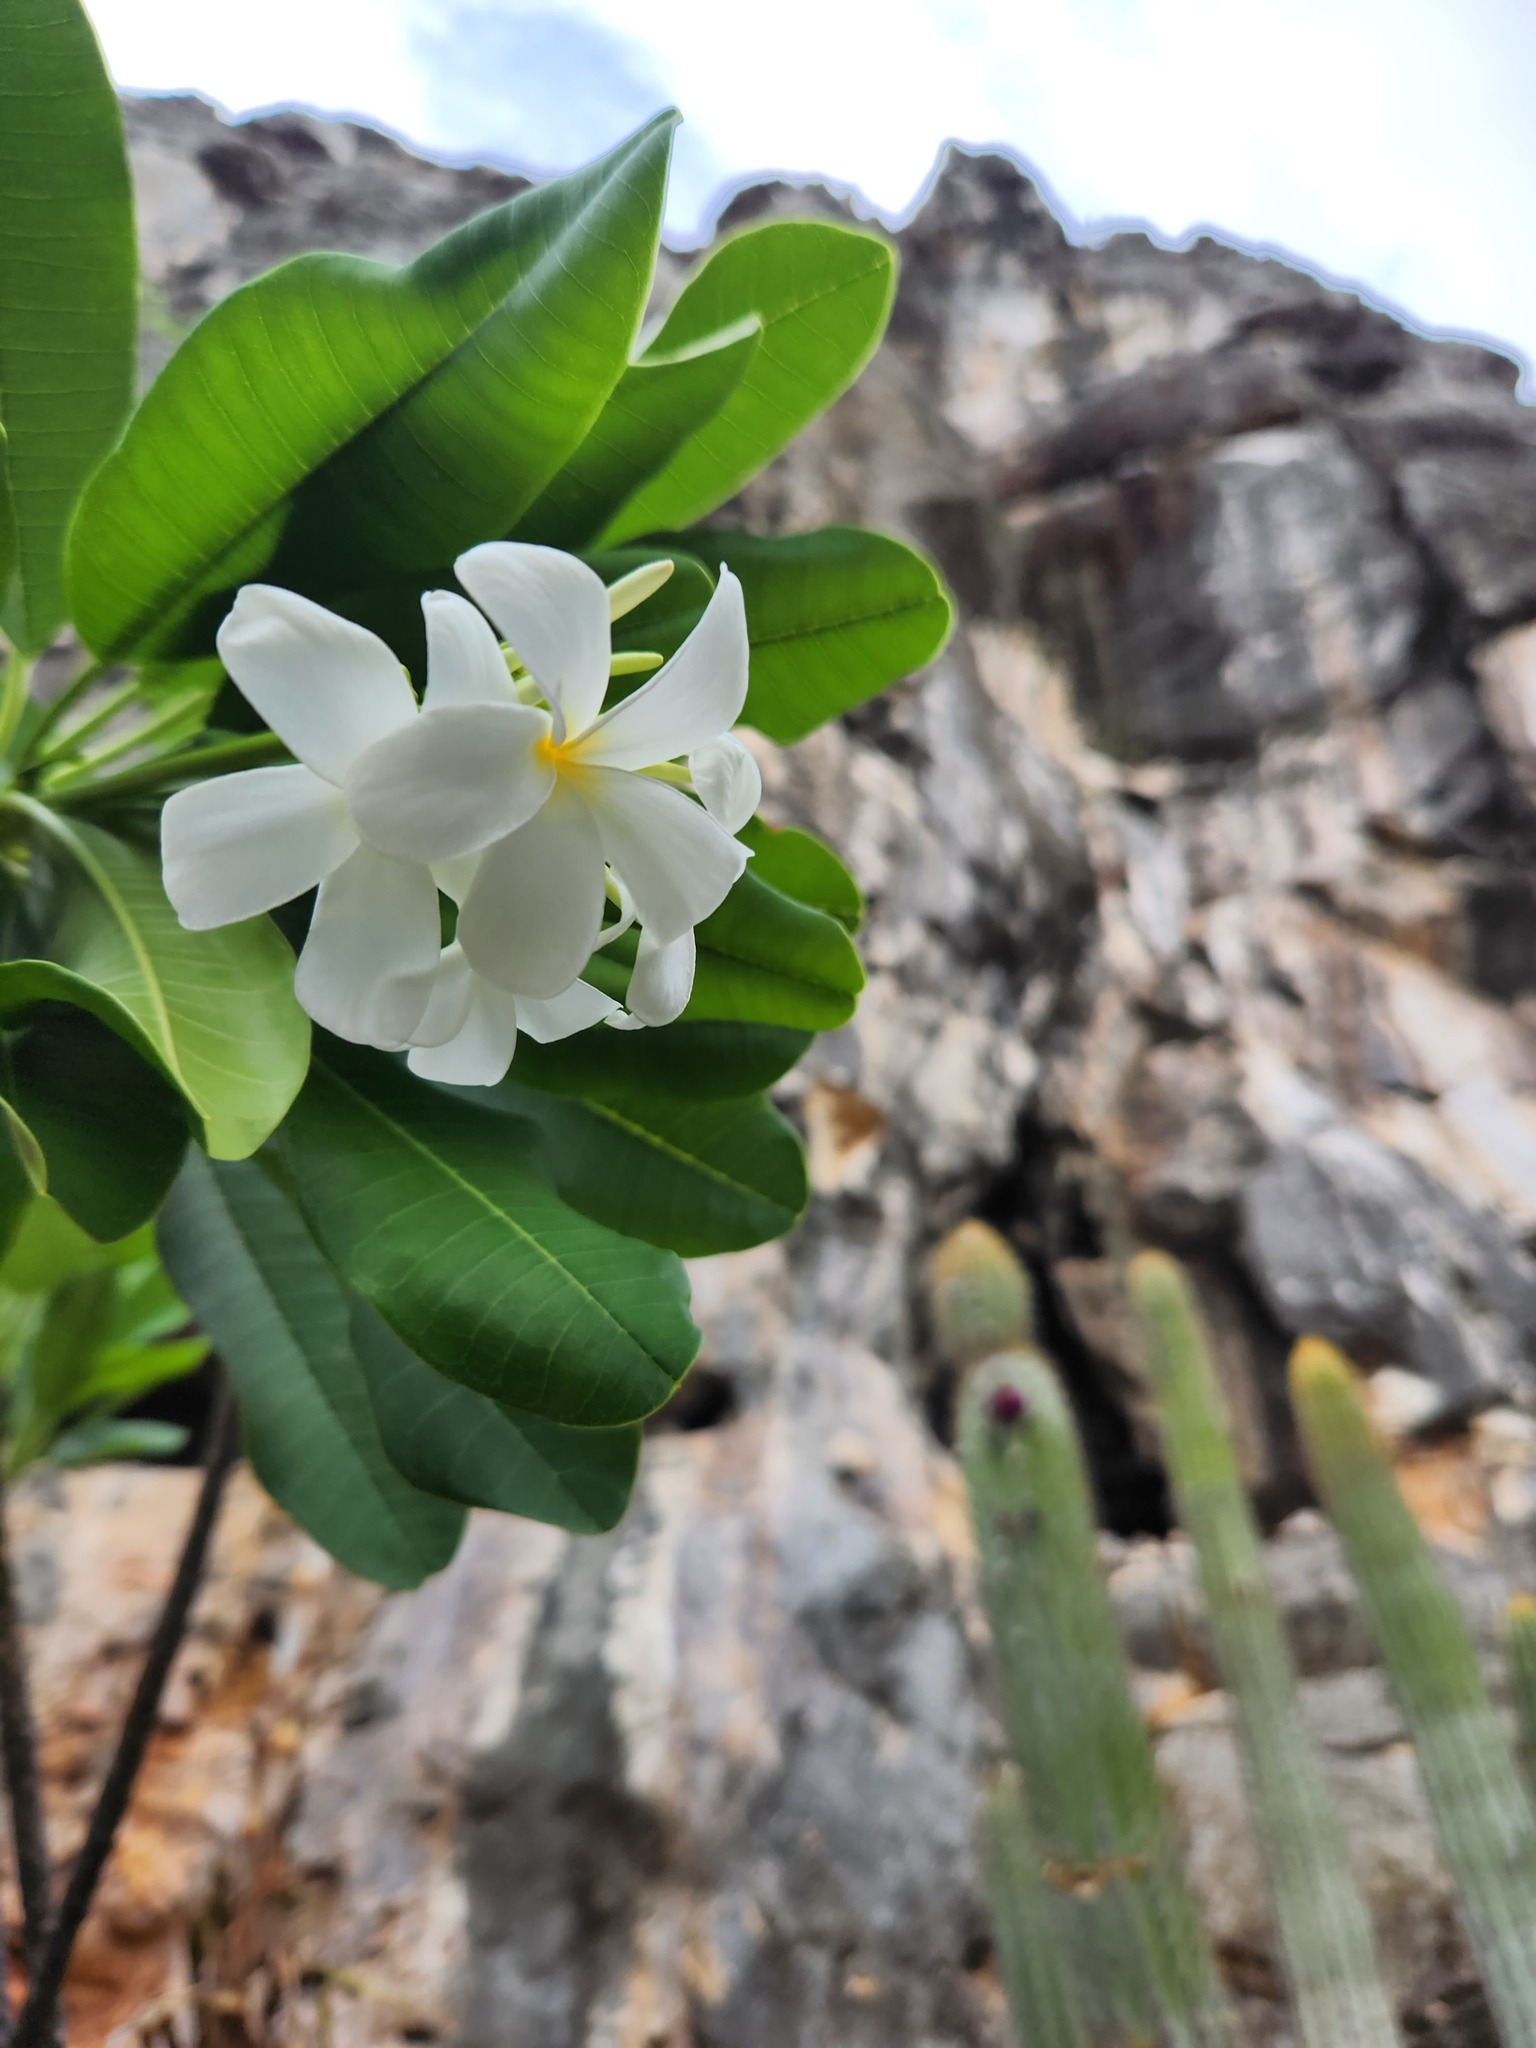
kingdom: Plantae
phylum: Tracheophyta
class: Magnoliopsida
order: Gentianales
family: Apocynaceae
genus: Plumeria
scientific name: Plumeria obtusa
